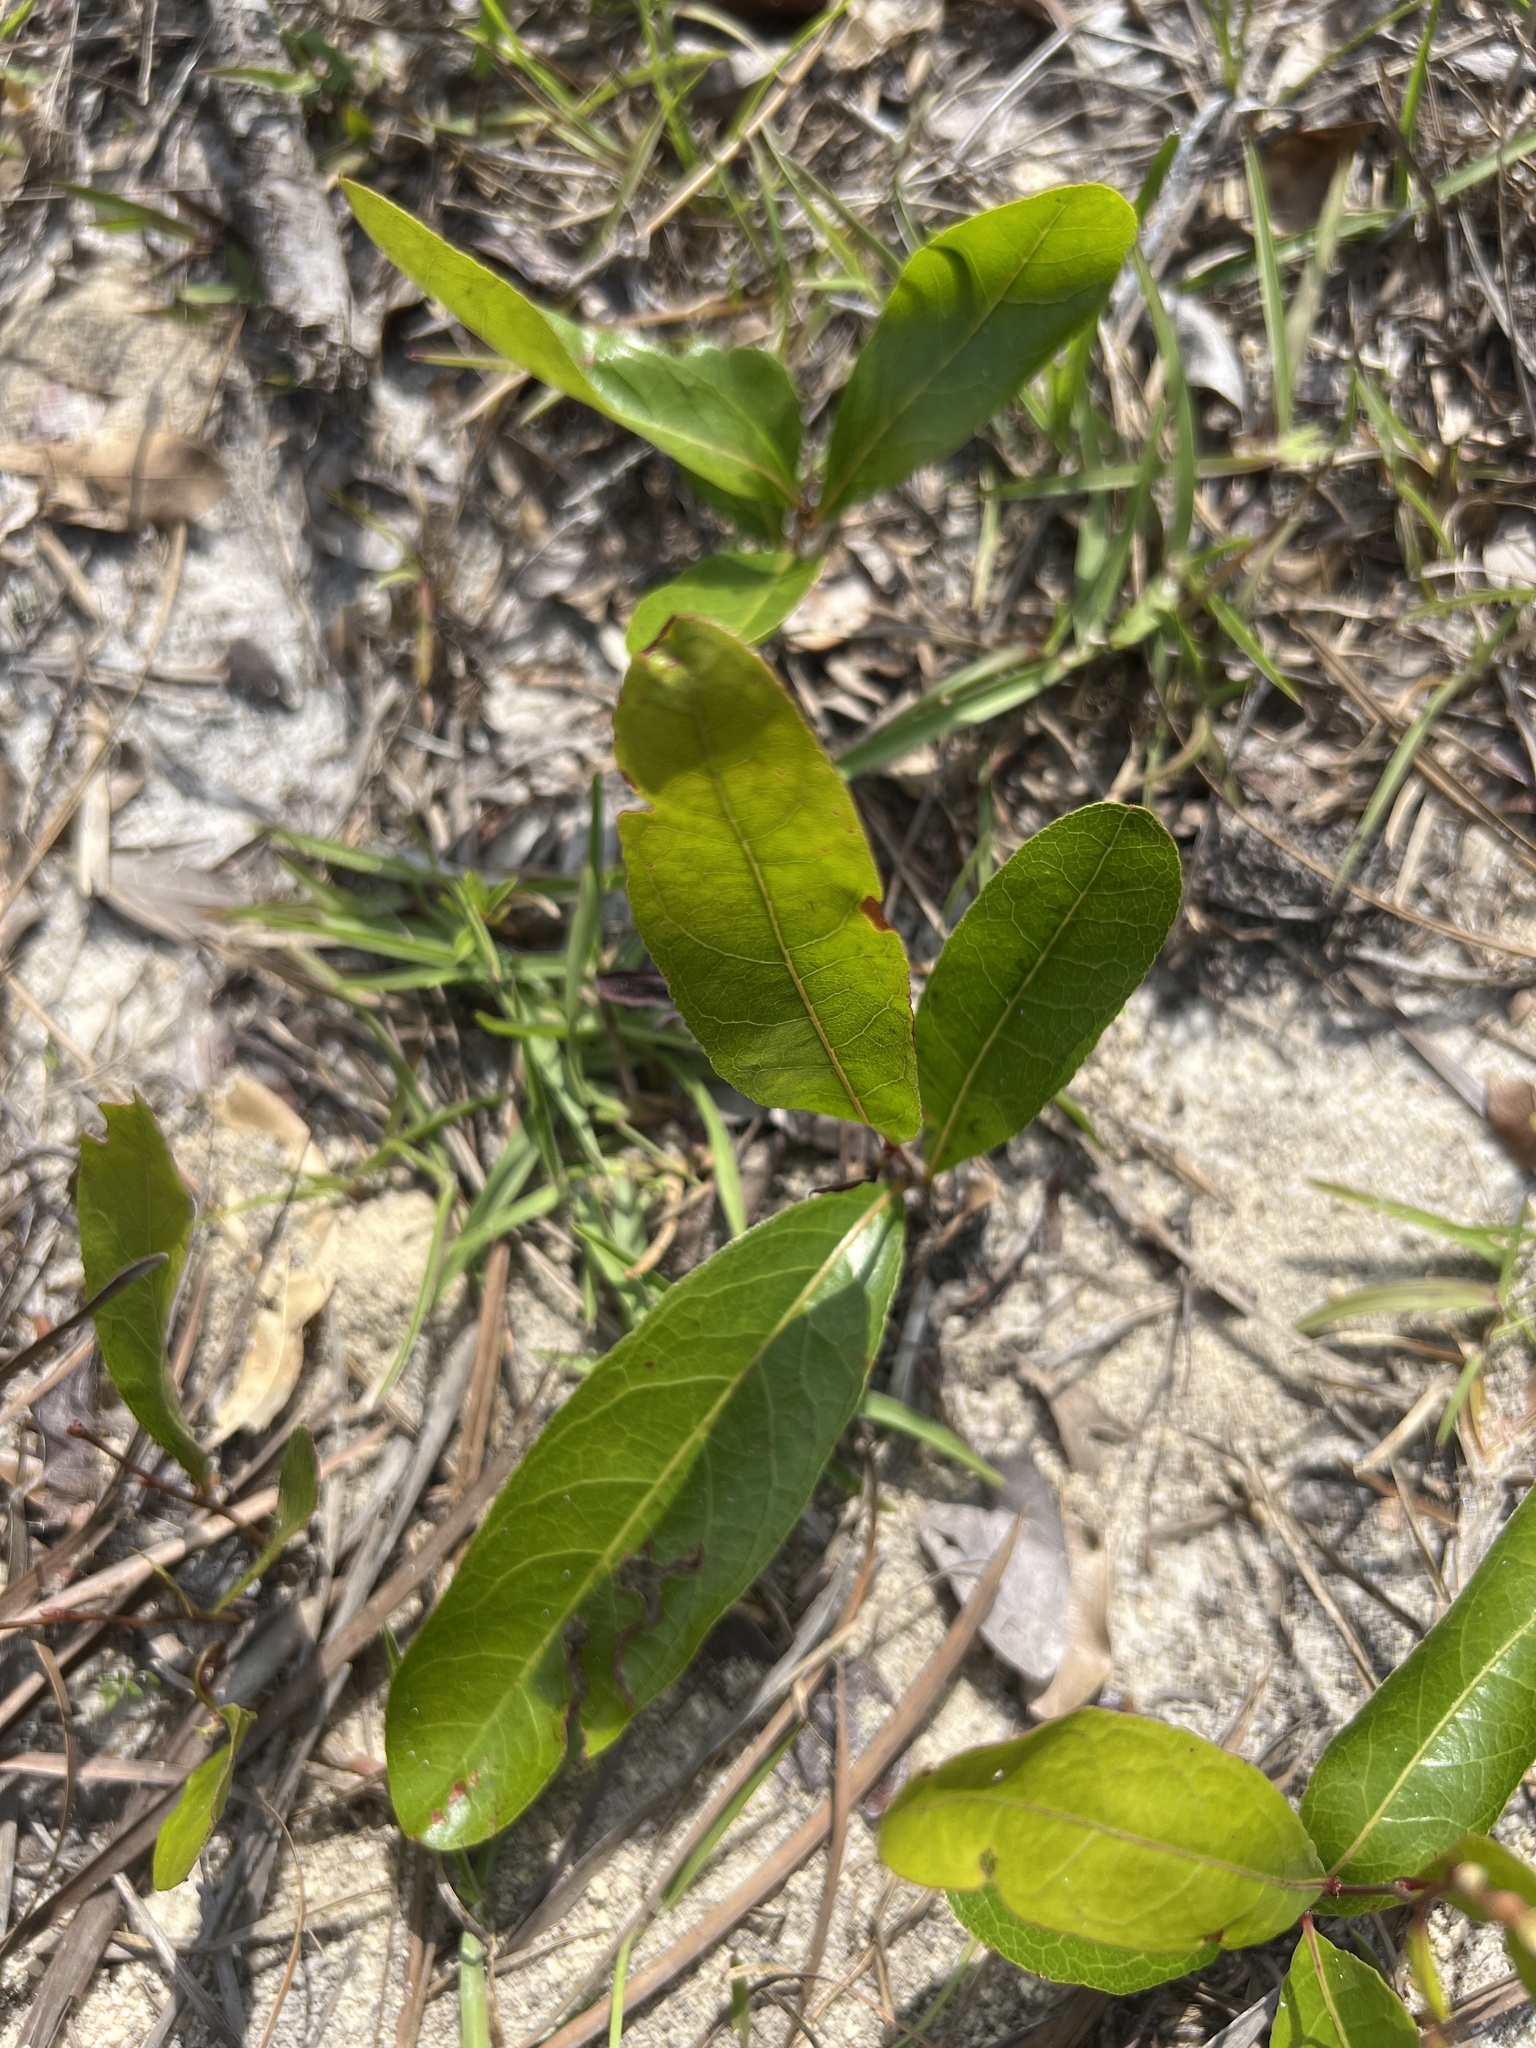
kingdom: Plantae
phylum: Tracheophyta
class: Magnoliopsida
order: Malpighiales
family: Chrysobalanaceae
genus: Geobalanus
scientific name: Geobalanus oblongifolius
